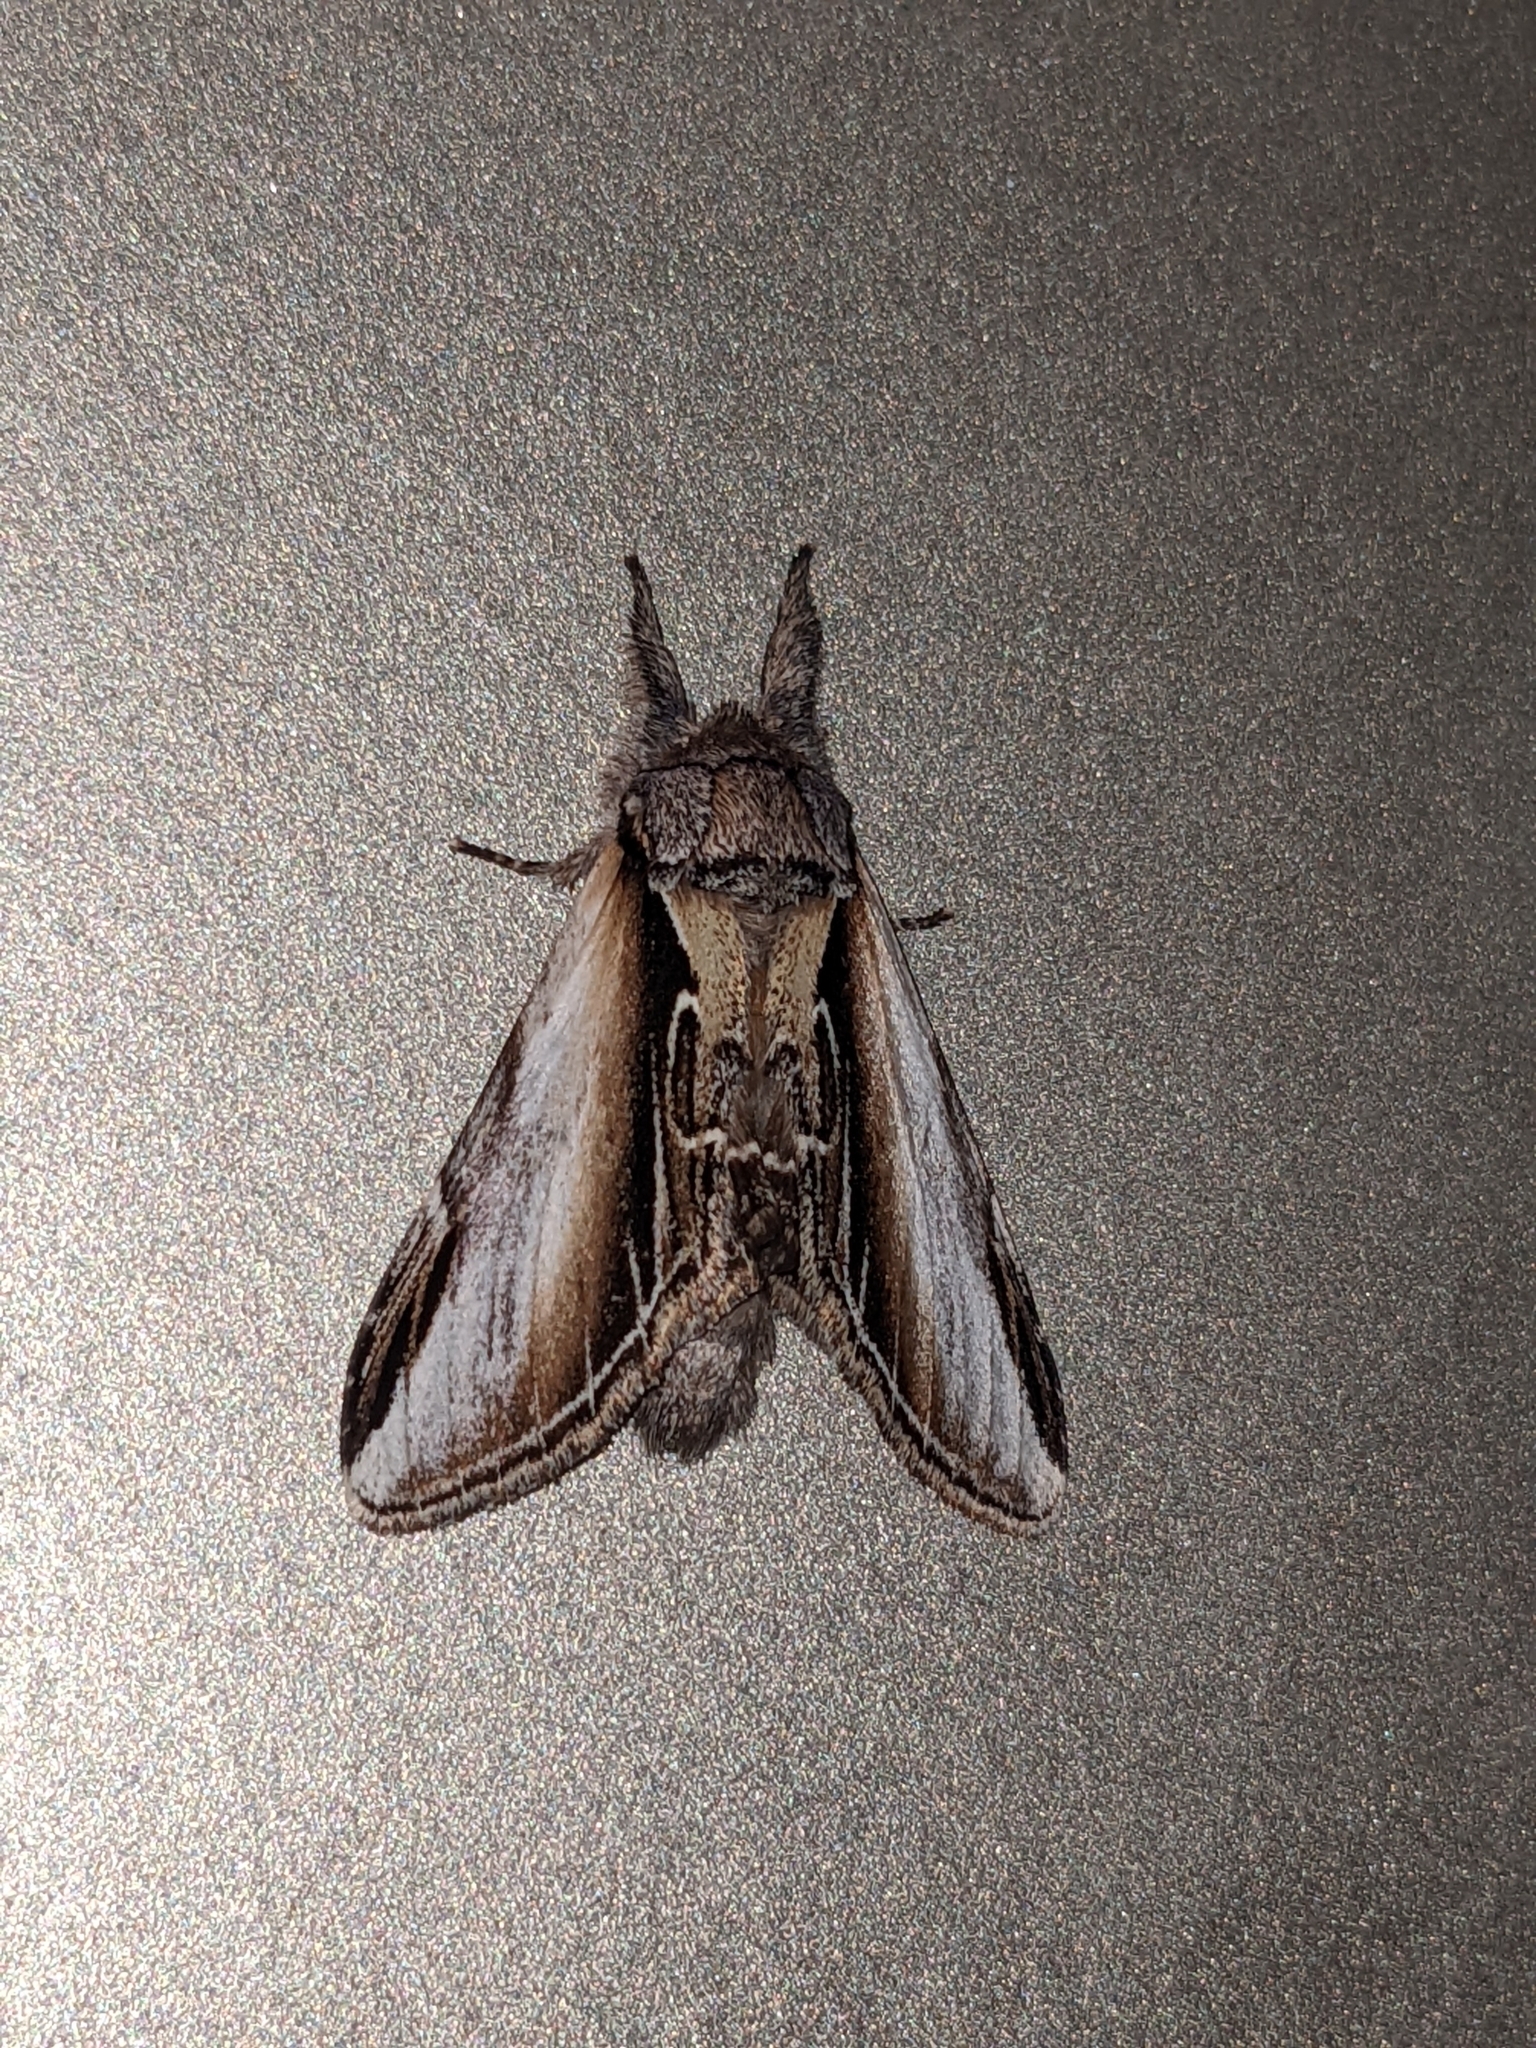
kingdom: Animalia
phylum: Arthropoda
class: Insecta
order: Lepidoptera
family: Notodontidae
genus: Pheosia
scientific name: Pheosia rimosa
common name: Black-rimmed prominent
